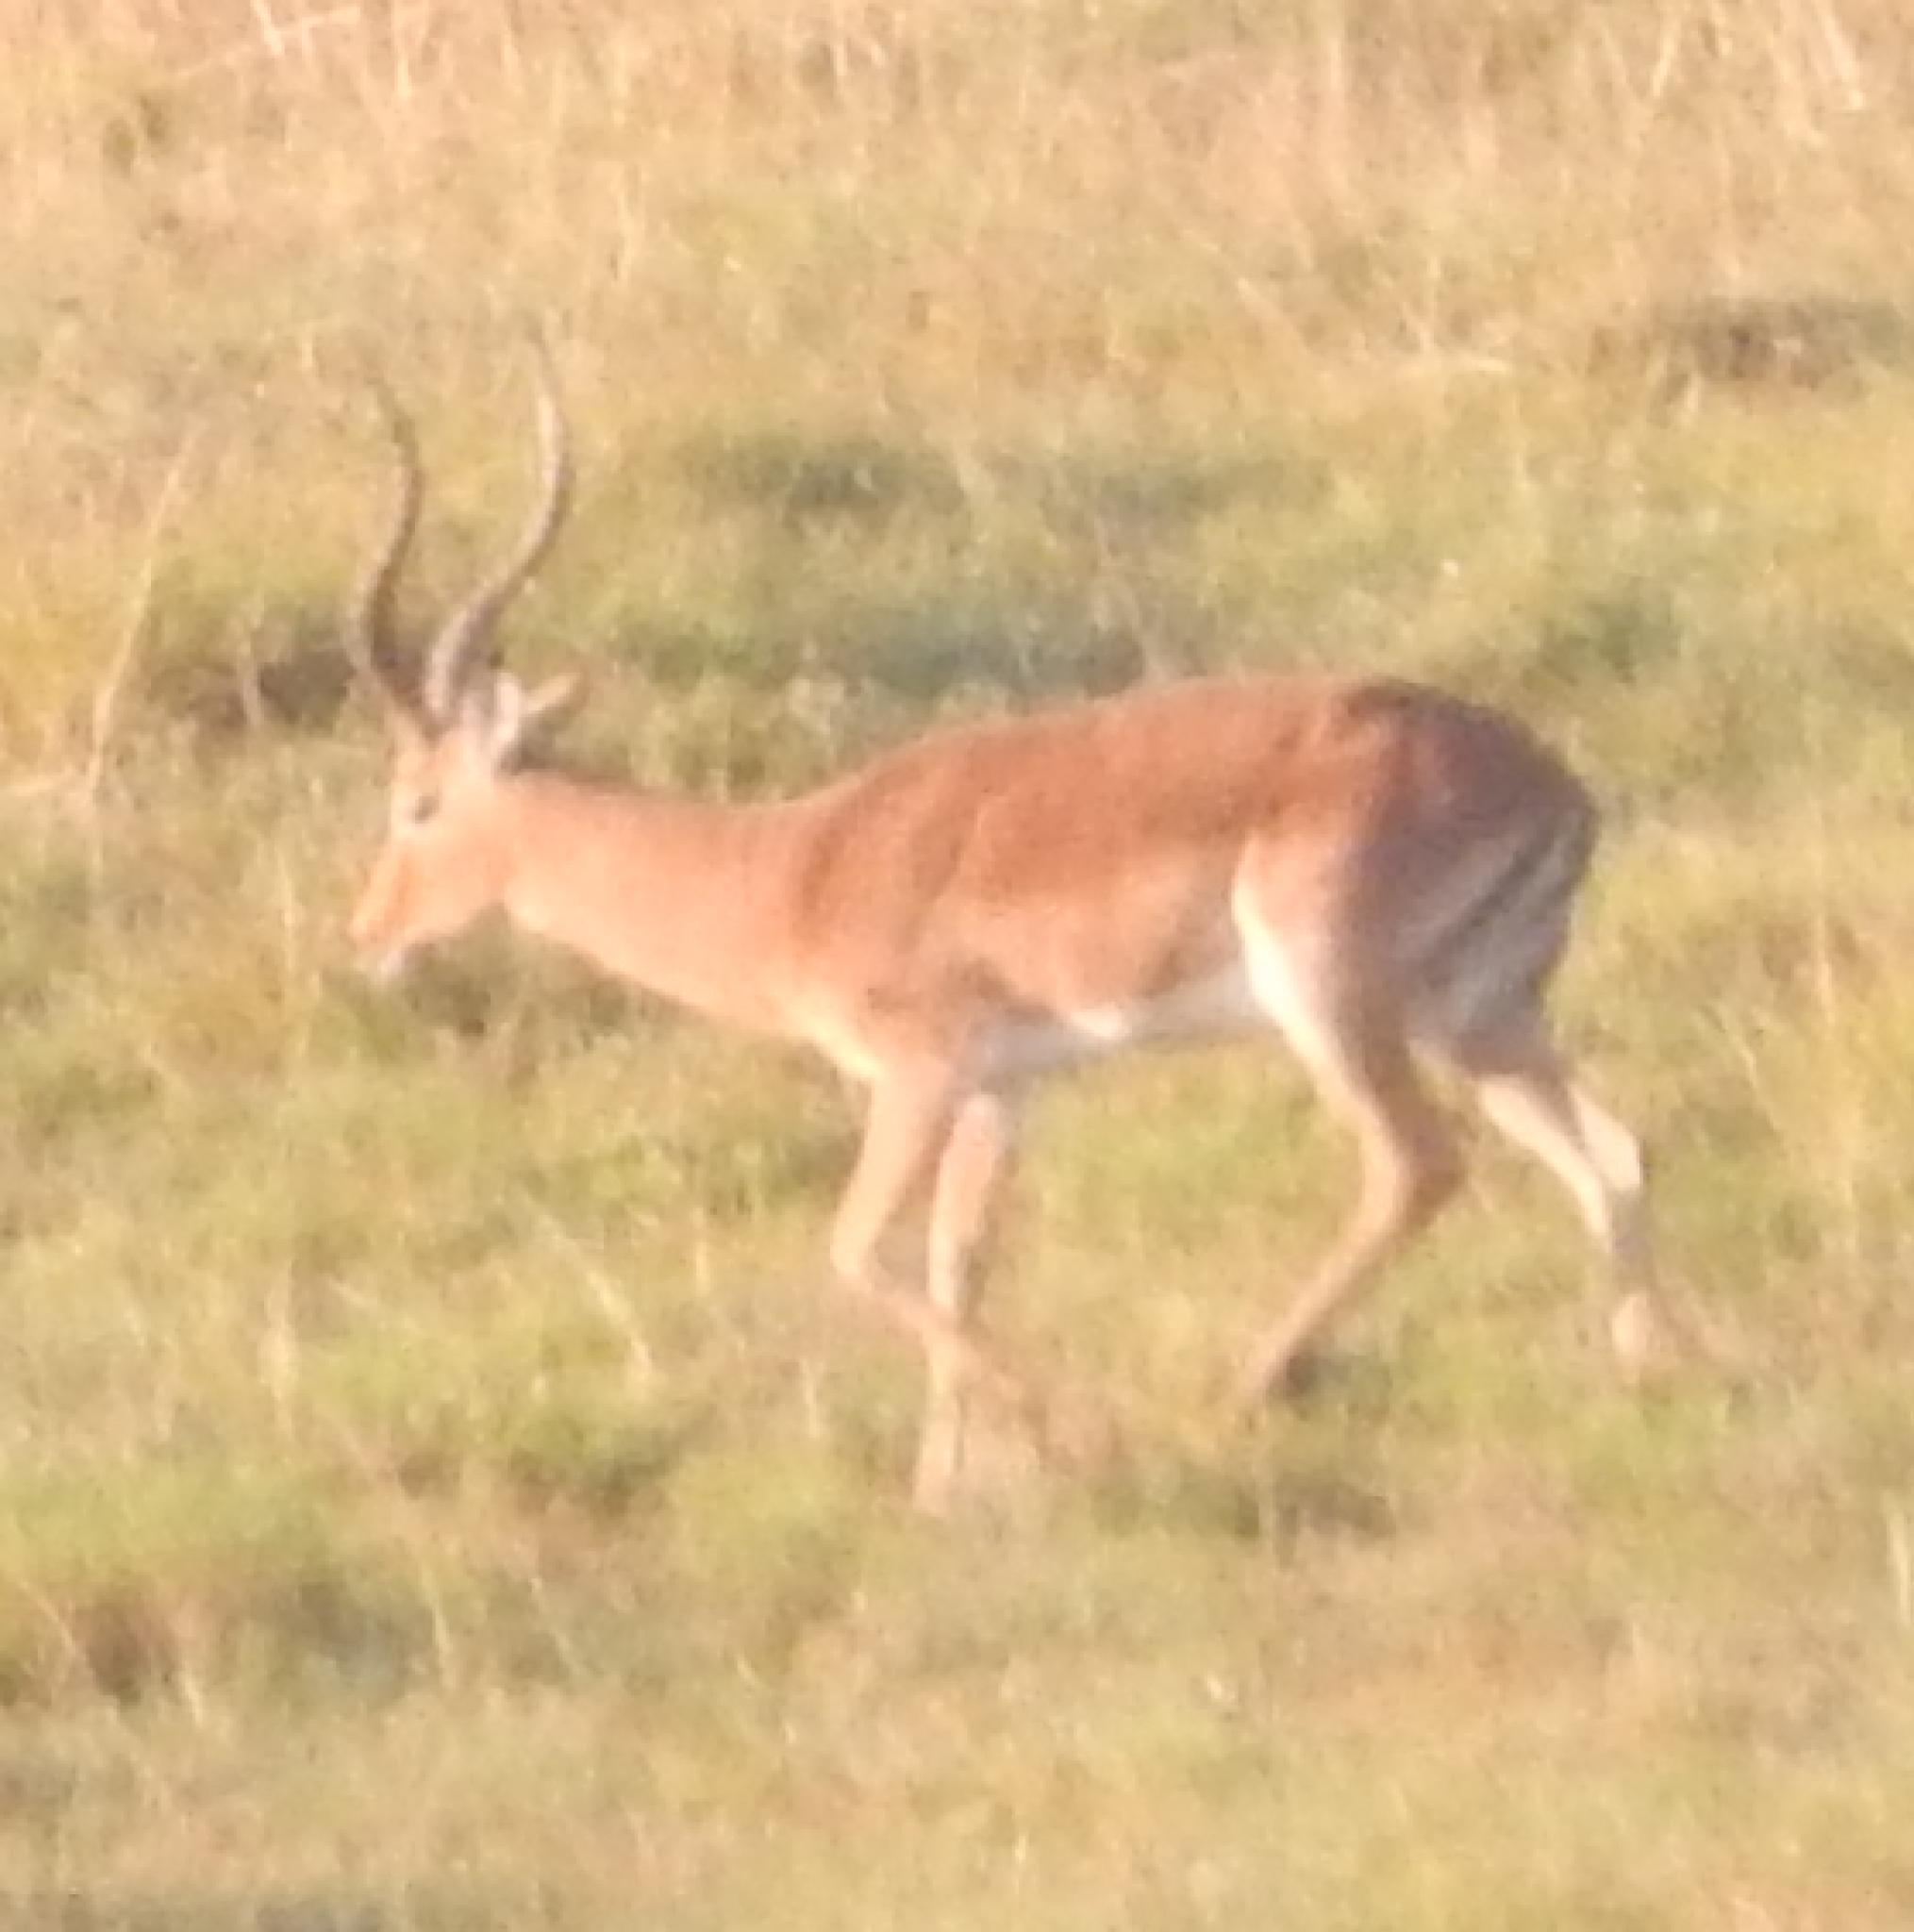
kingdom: Animalia
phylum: Chordata
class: Mammalia
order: Artiodactyla
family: Bovidae
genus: Aepyceros
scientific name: Aepyceros melampus
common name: Impala
